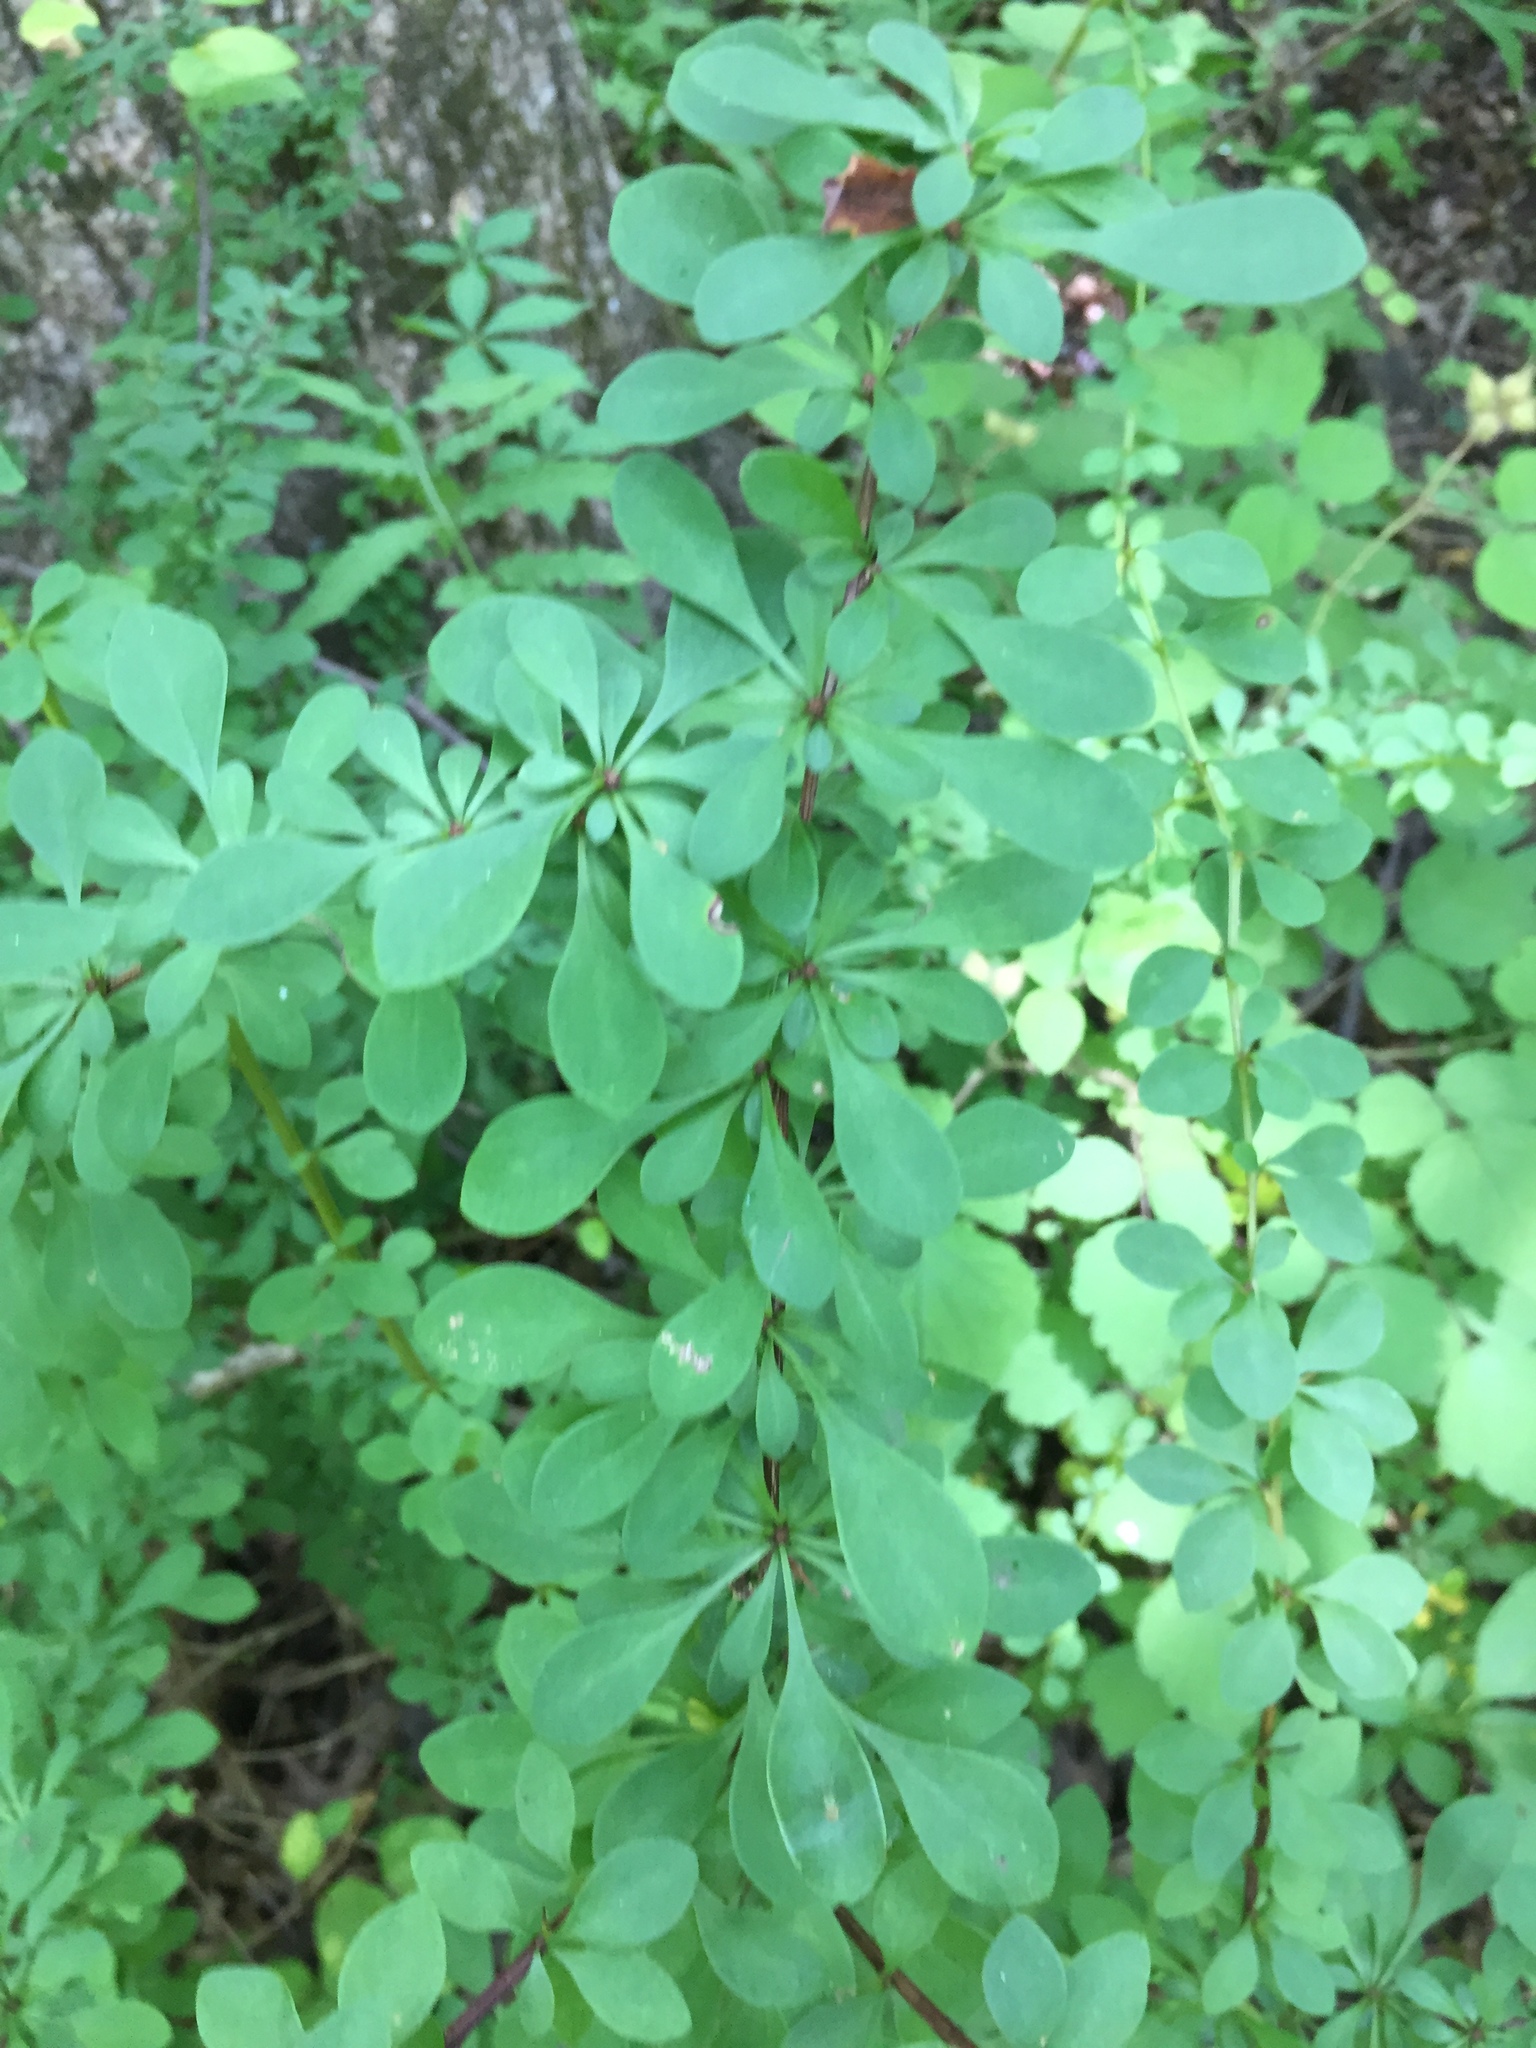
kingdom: Plantae
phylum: Tracheophyta
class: Magnoliopsida
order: Ranunculales
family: Berberidaceae
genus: Berberis
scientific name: Berberis thunbergii
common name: Japanese barberry
